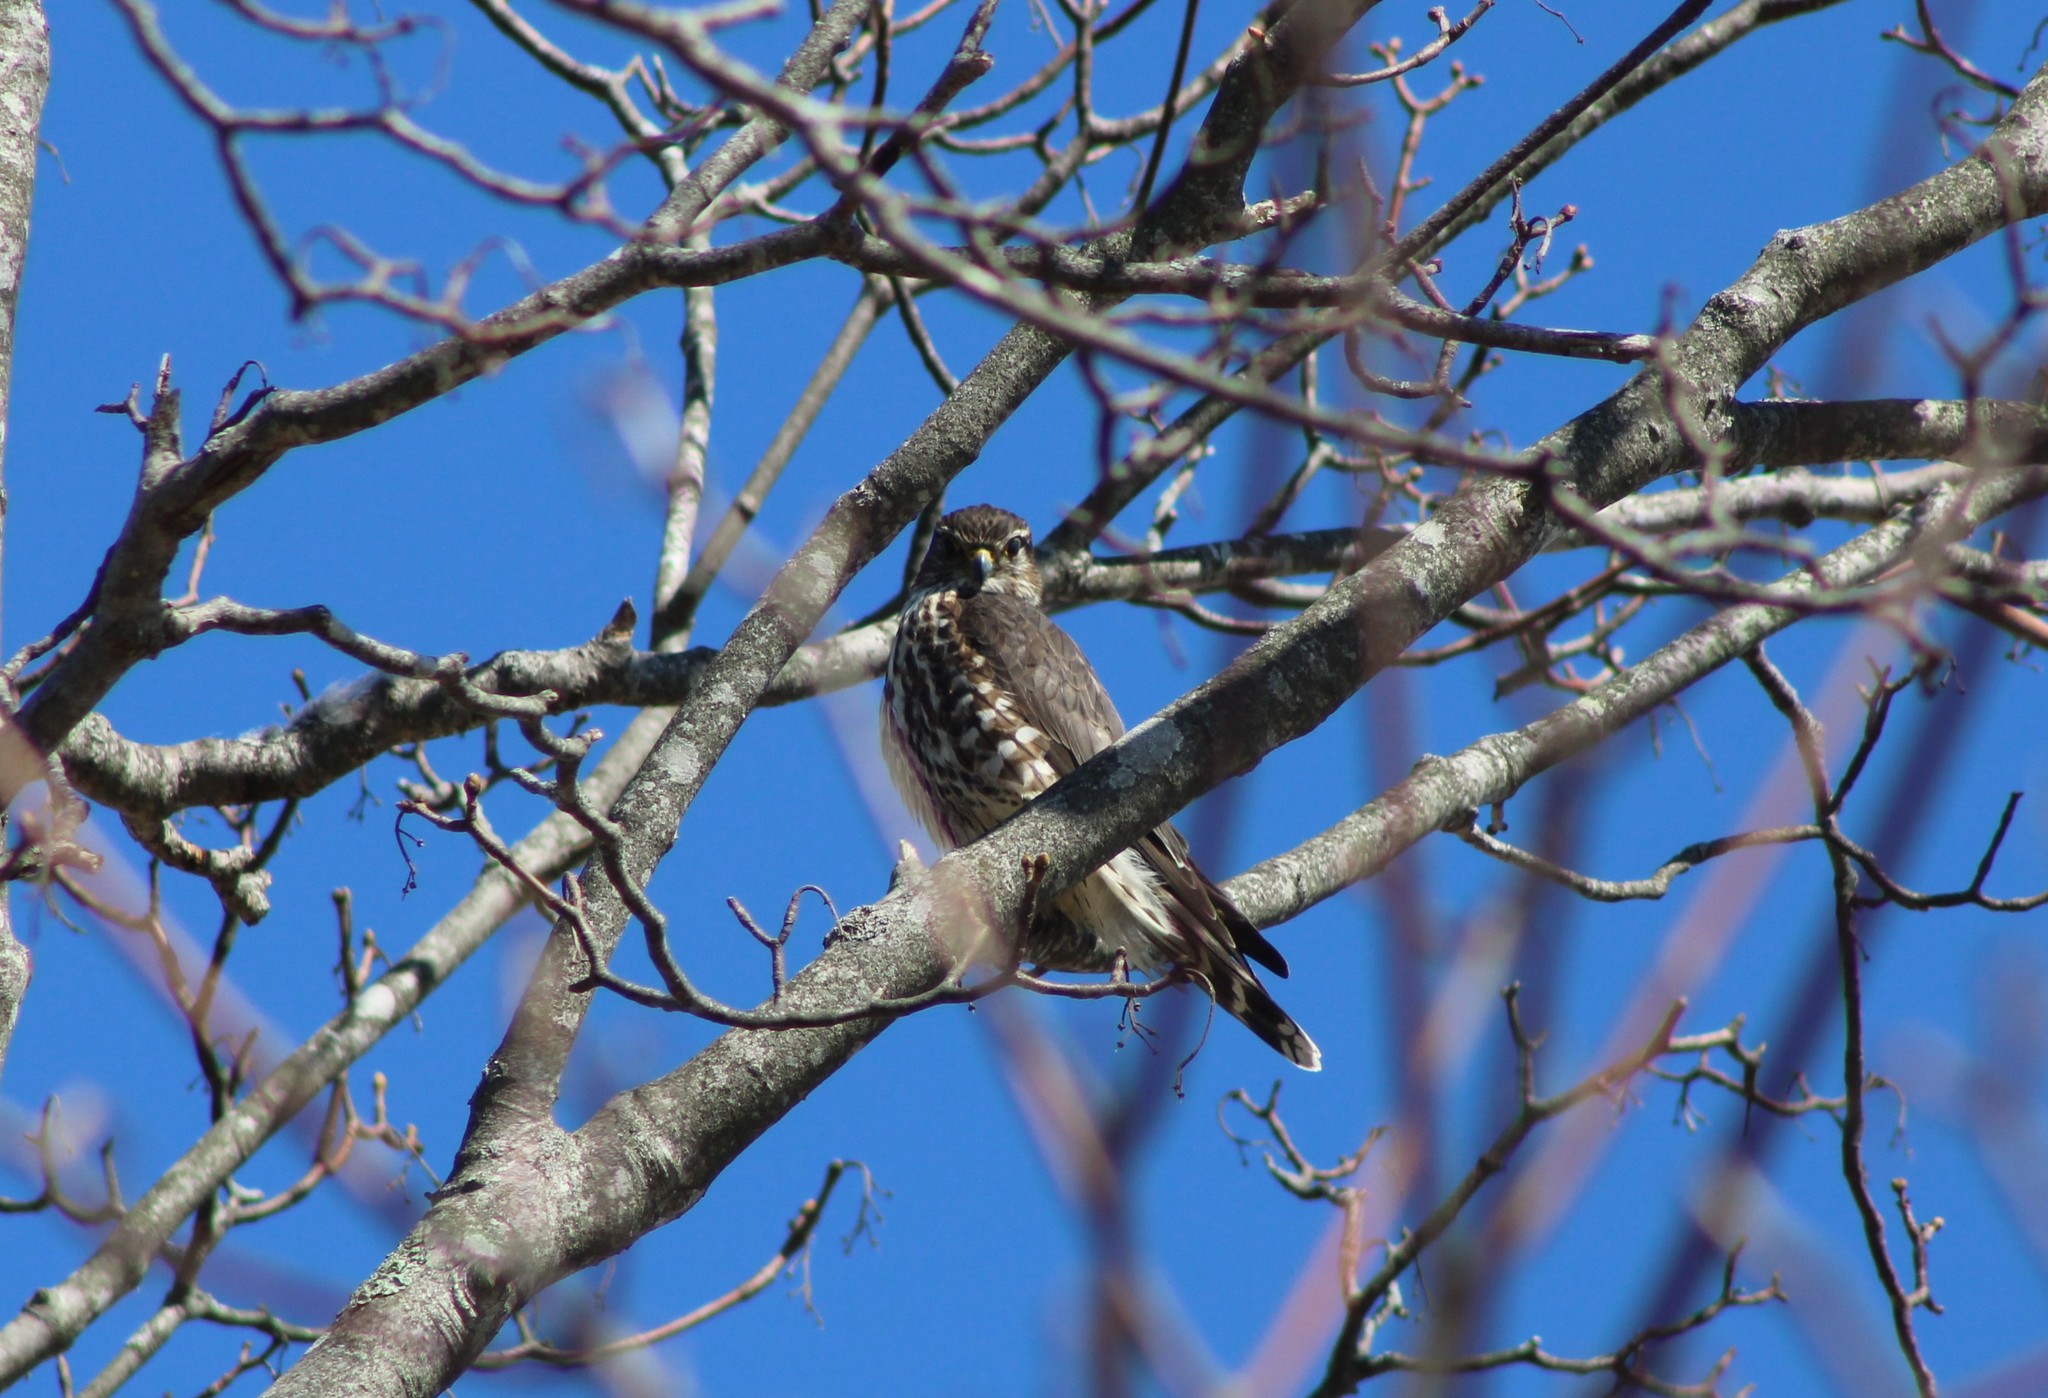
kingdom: Animalia
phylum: Chordata
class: Aves
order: Falconiformes
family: Falconidae
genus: Falco
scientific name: Falco columbarius
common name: Merlin
